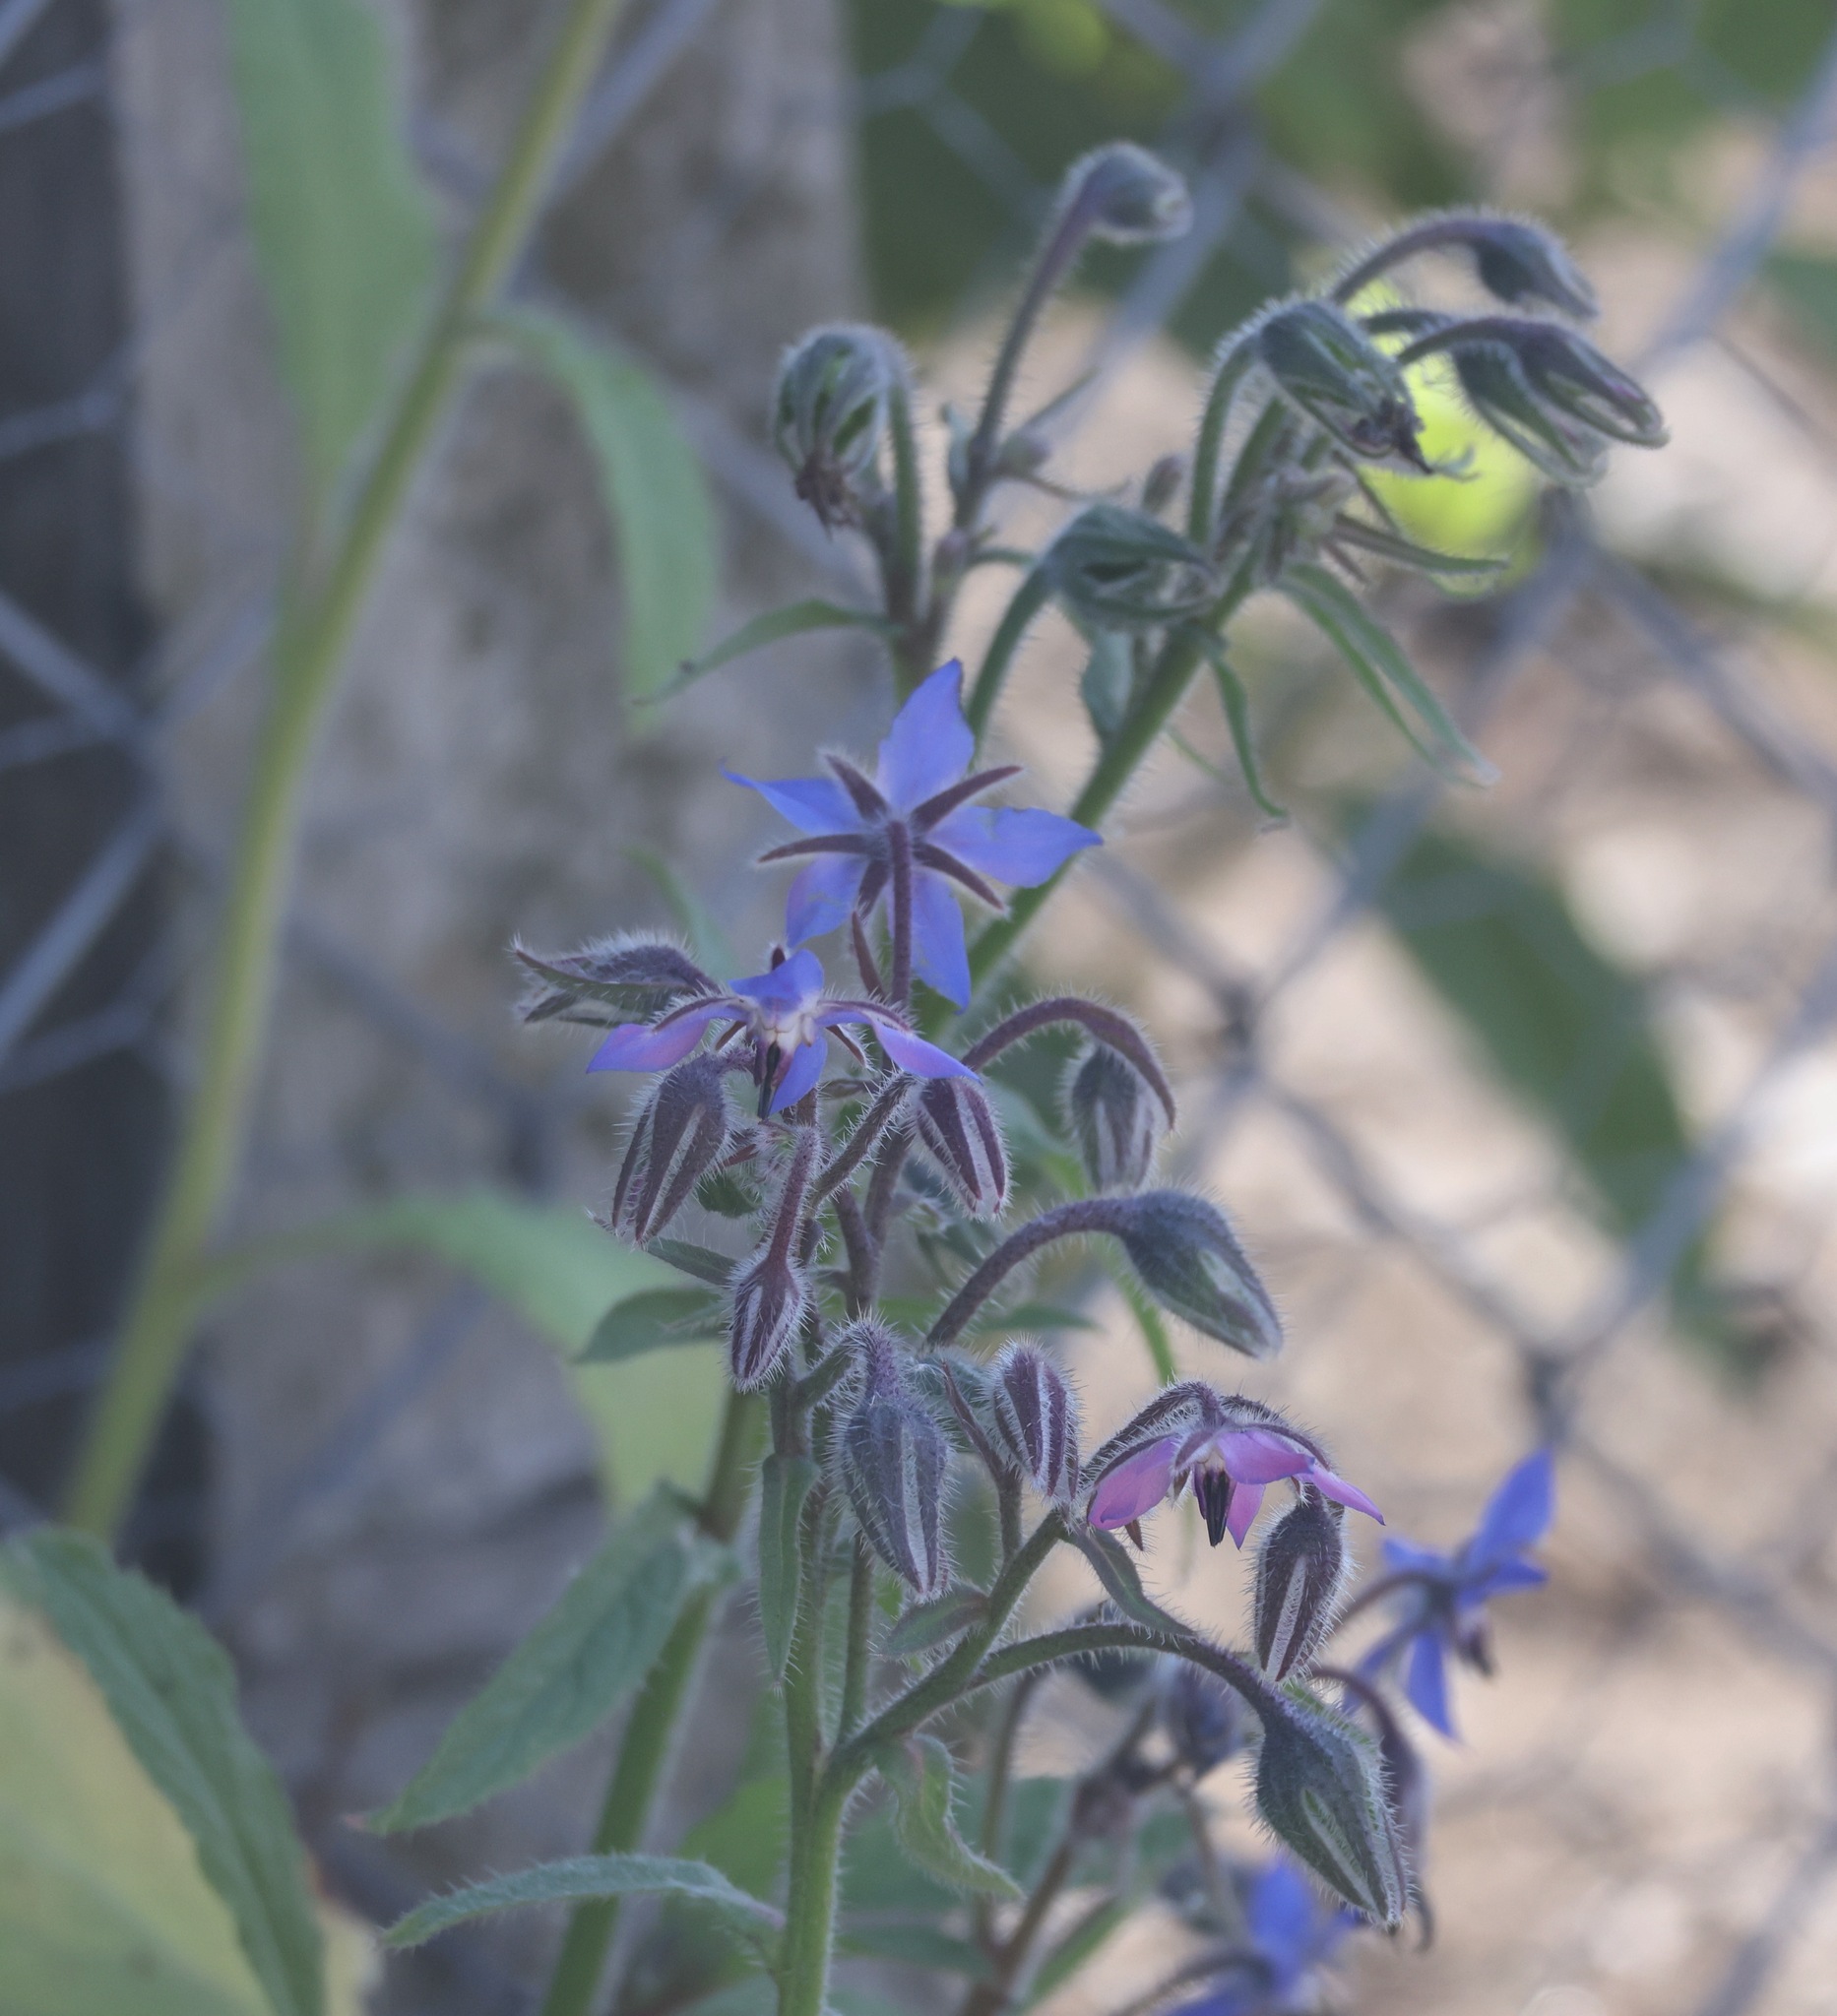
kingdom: Plantae
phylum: Tracheophyta
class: Magnoliopsida
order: Boraginales
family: Boraginaceae
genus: Borago
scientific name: Borago officinalis
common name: Borage
